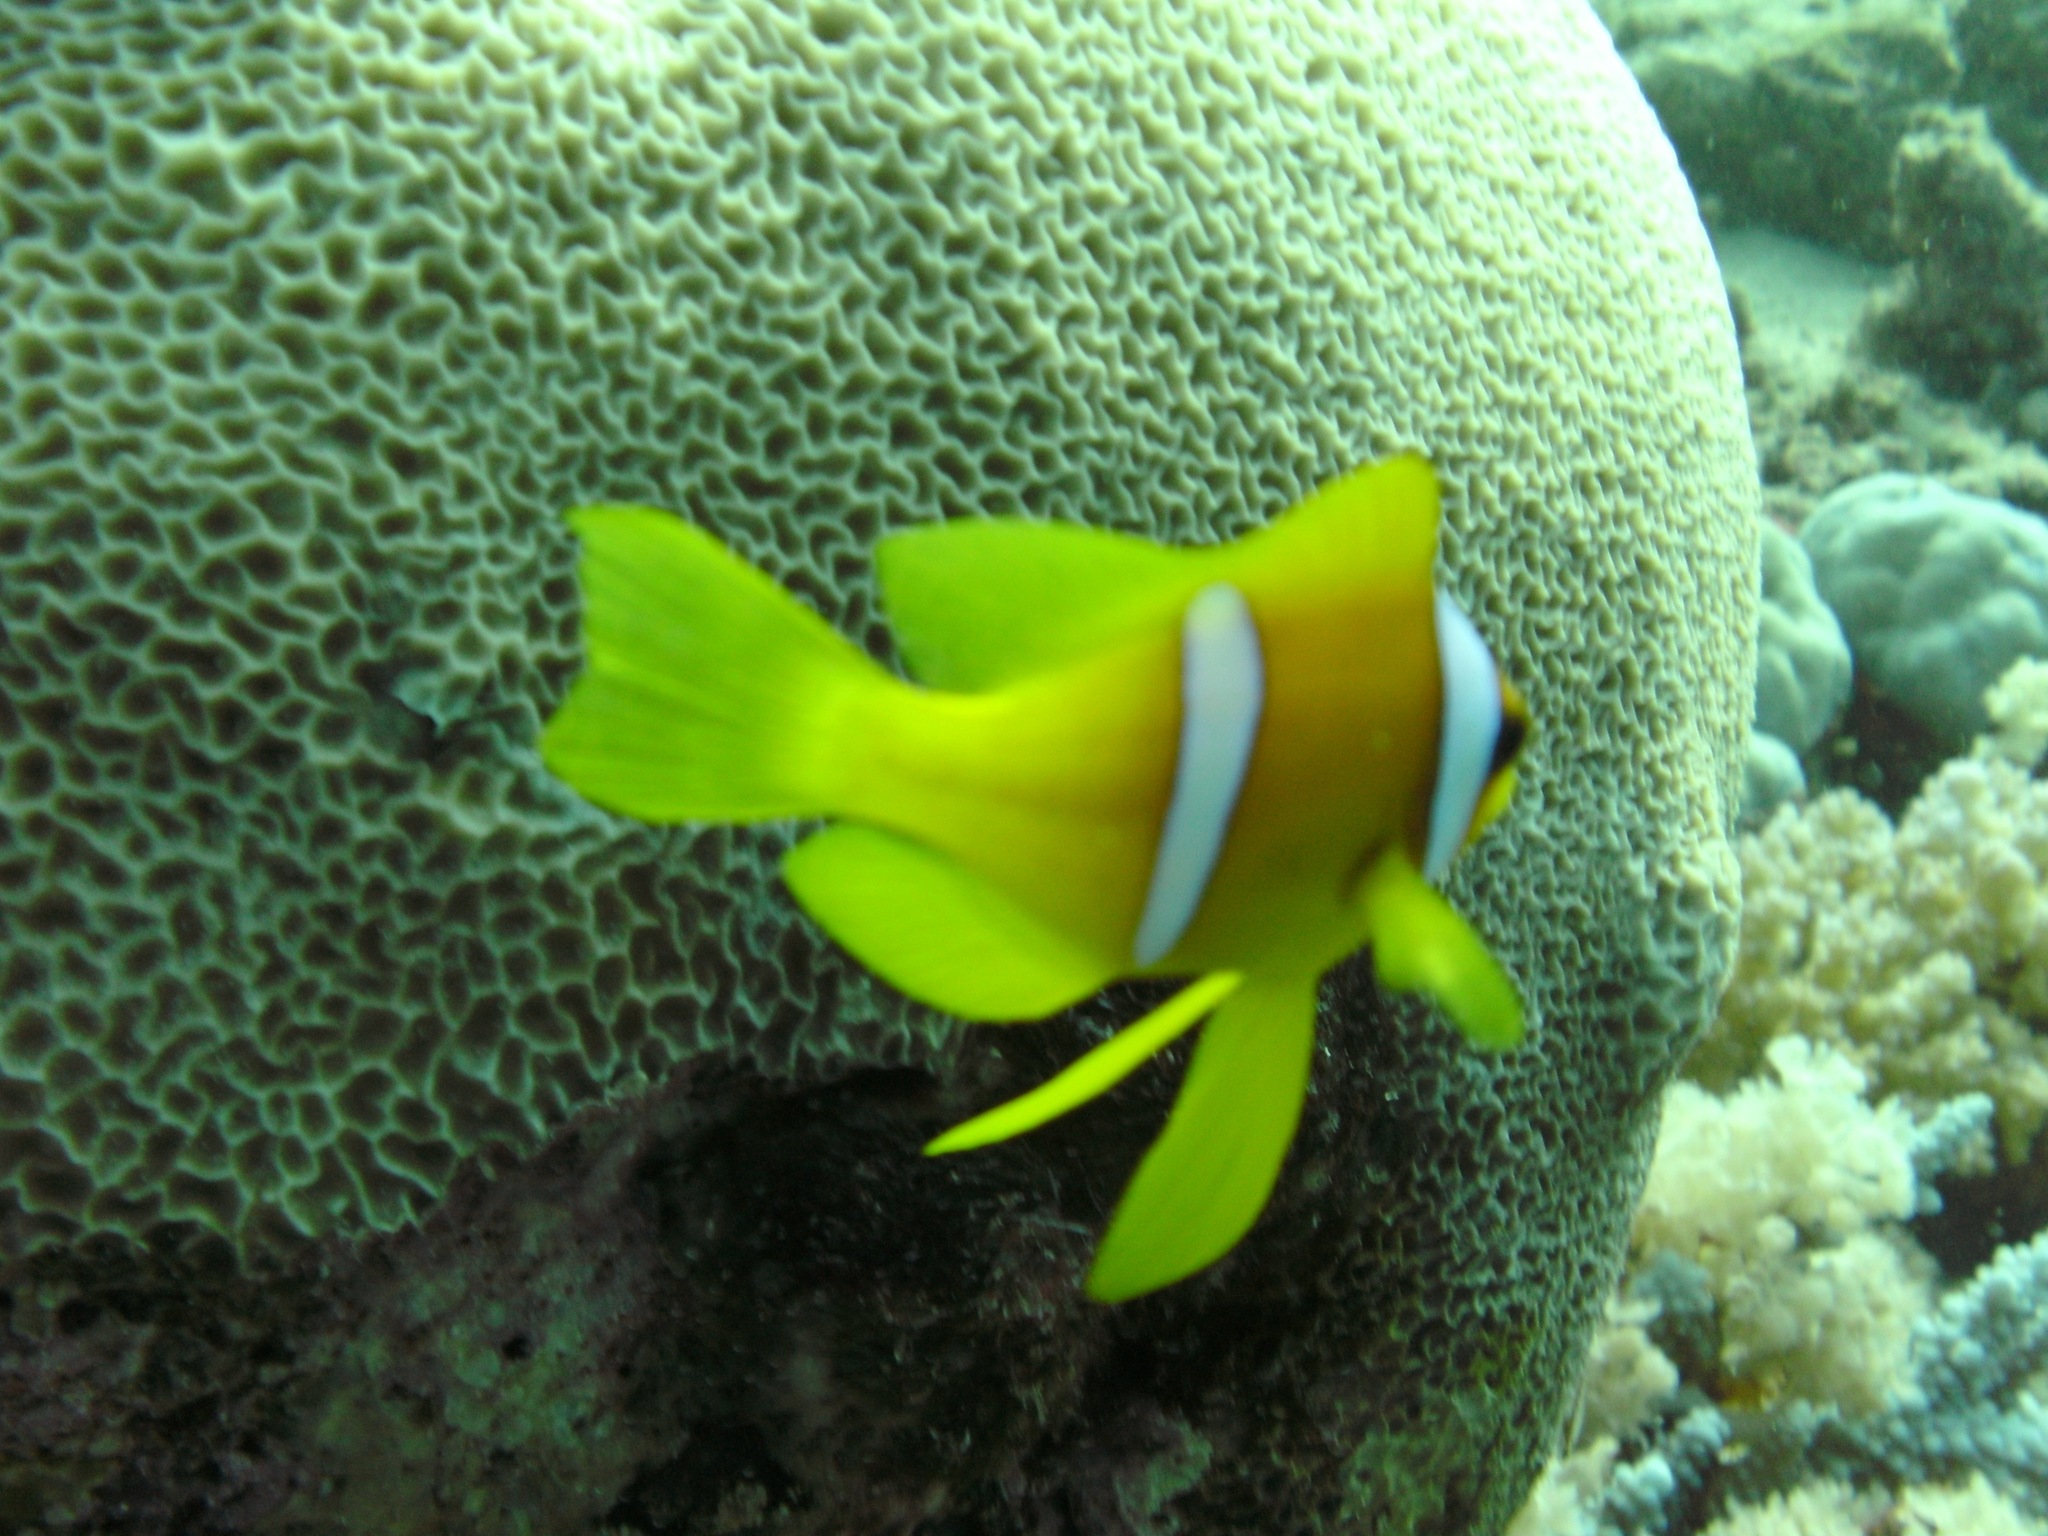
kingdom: Animalia
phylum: Chordata
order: Perciformes
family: Pomacentridae
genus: Amphiprion
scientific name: Amphiprion bicinctus
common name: Two-banded anemonefish
